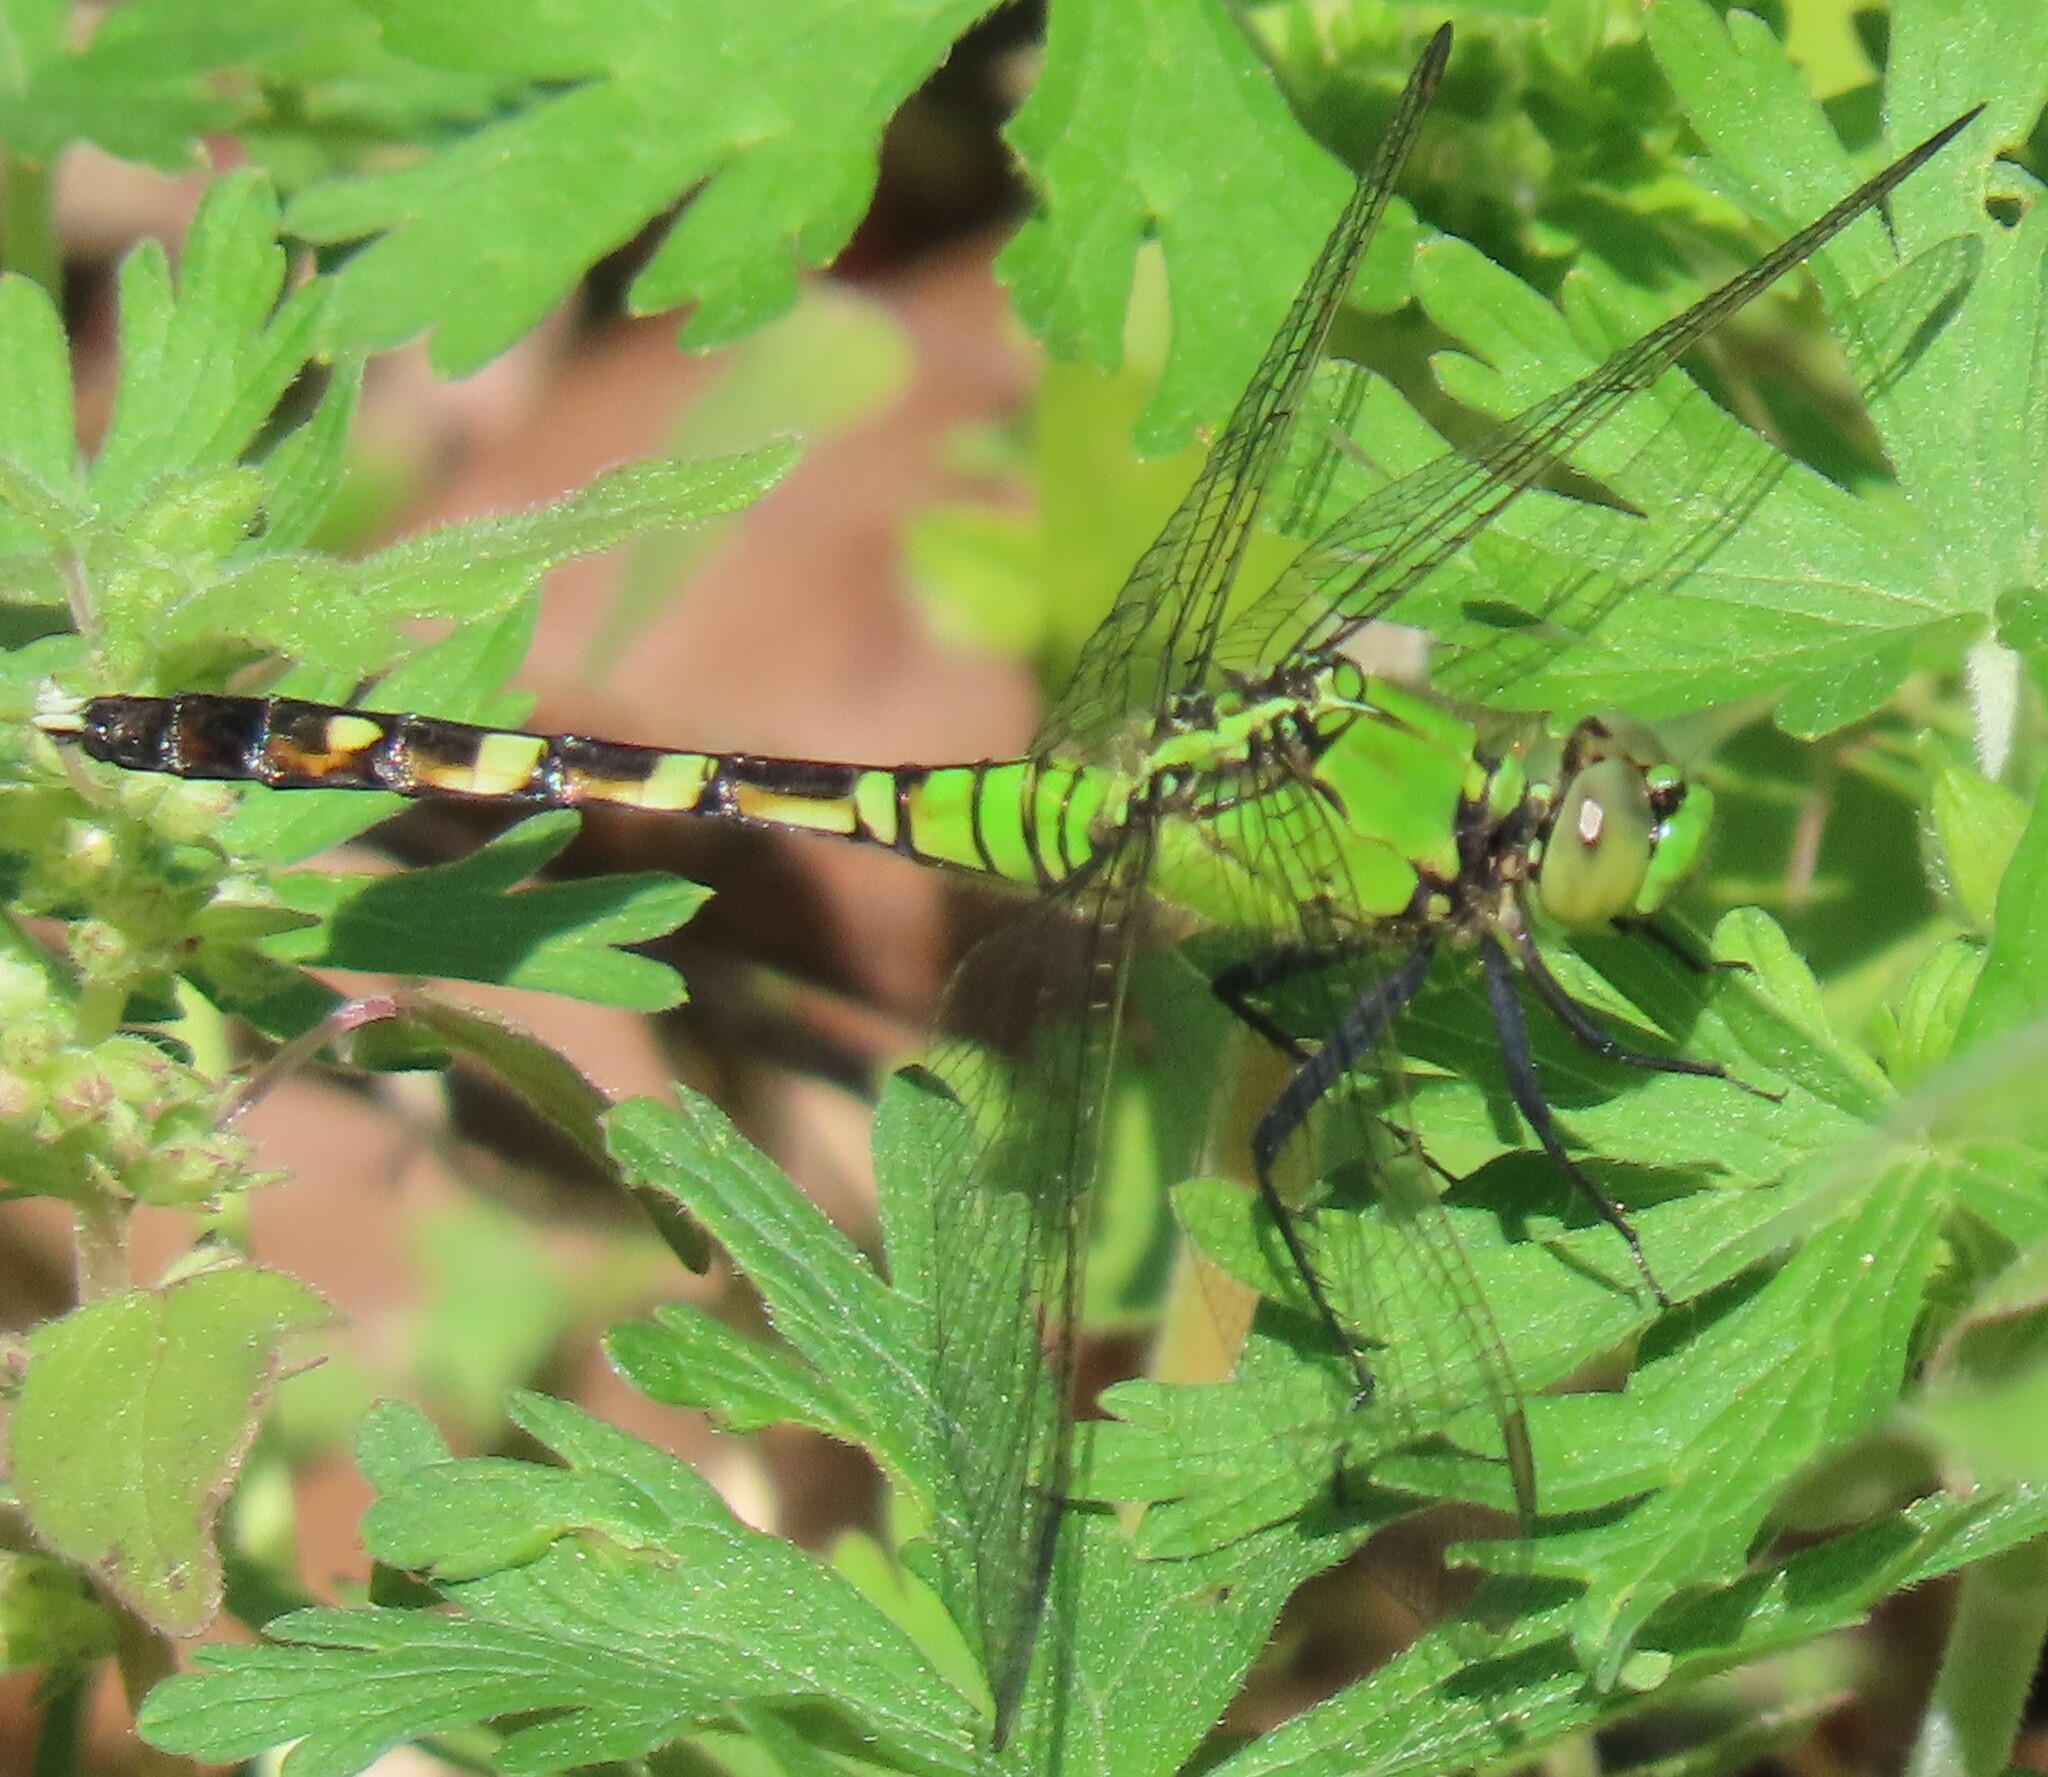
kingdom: Animalia
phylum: Arthropoda
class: Insecta
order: Odonata
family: Libellulidae
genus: Erythemis
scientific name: Erythemis simplicicollis
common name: Eastern pondhawk
